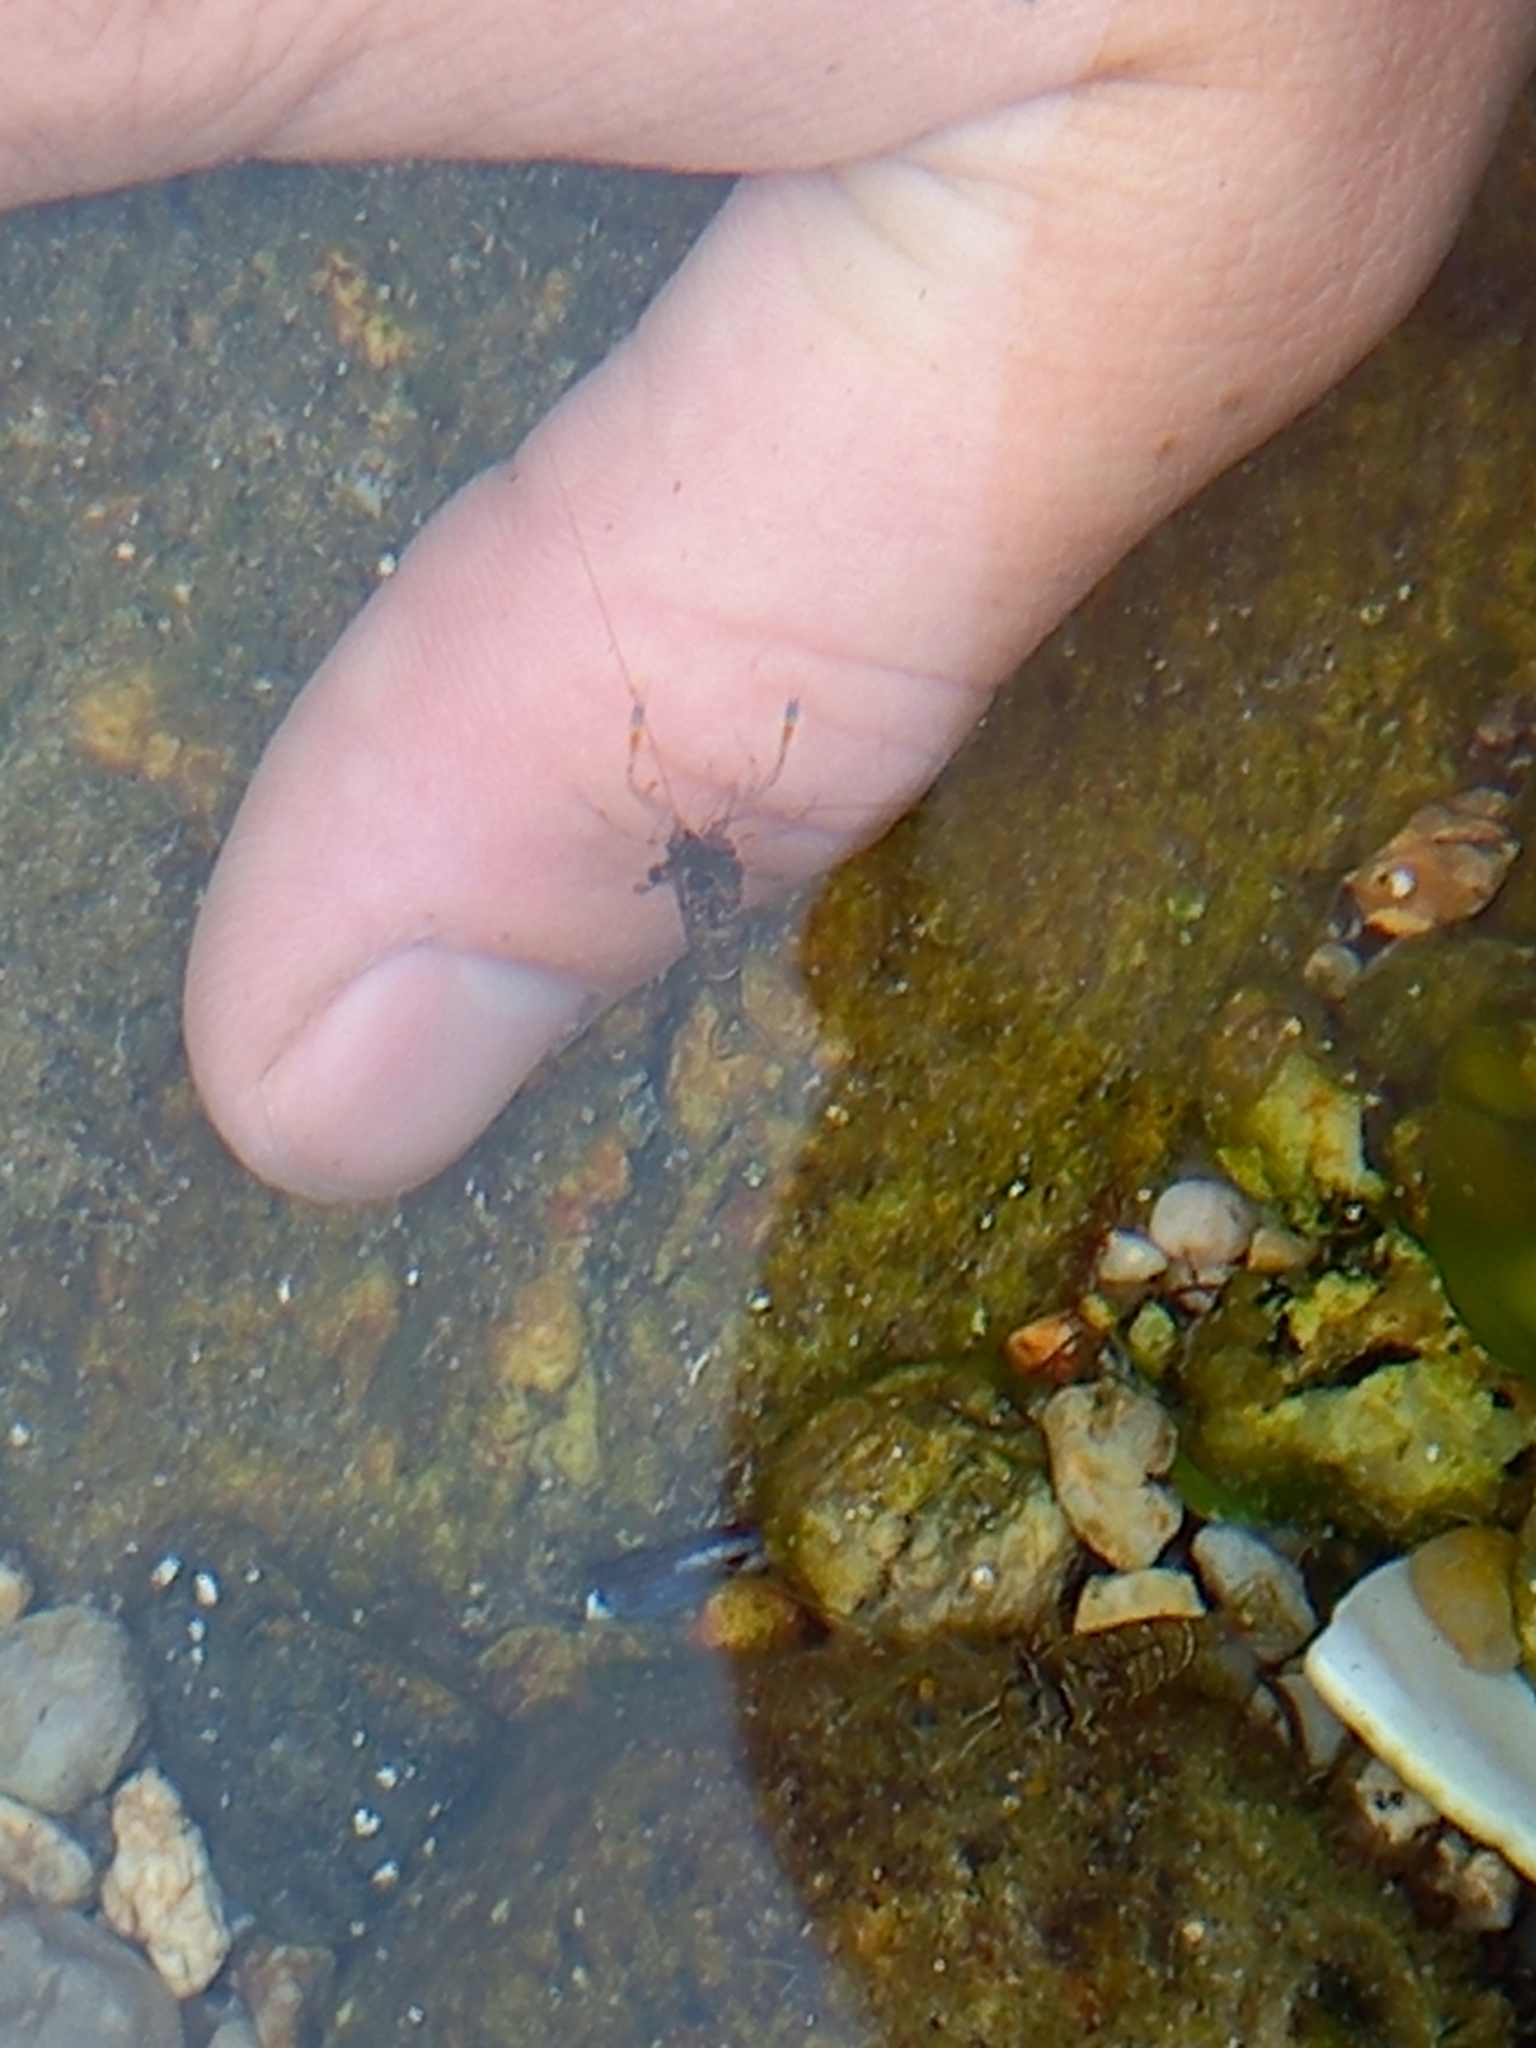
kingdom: Animalia
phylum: Arthropoda
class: Malacostraca
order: Decapoda
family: Palaemonidae
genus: Palaemon
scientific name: Palaemon elegans
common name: Grass prawm
